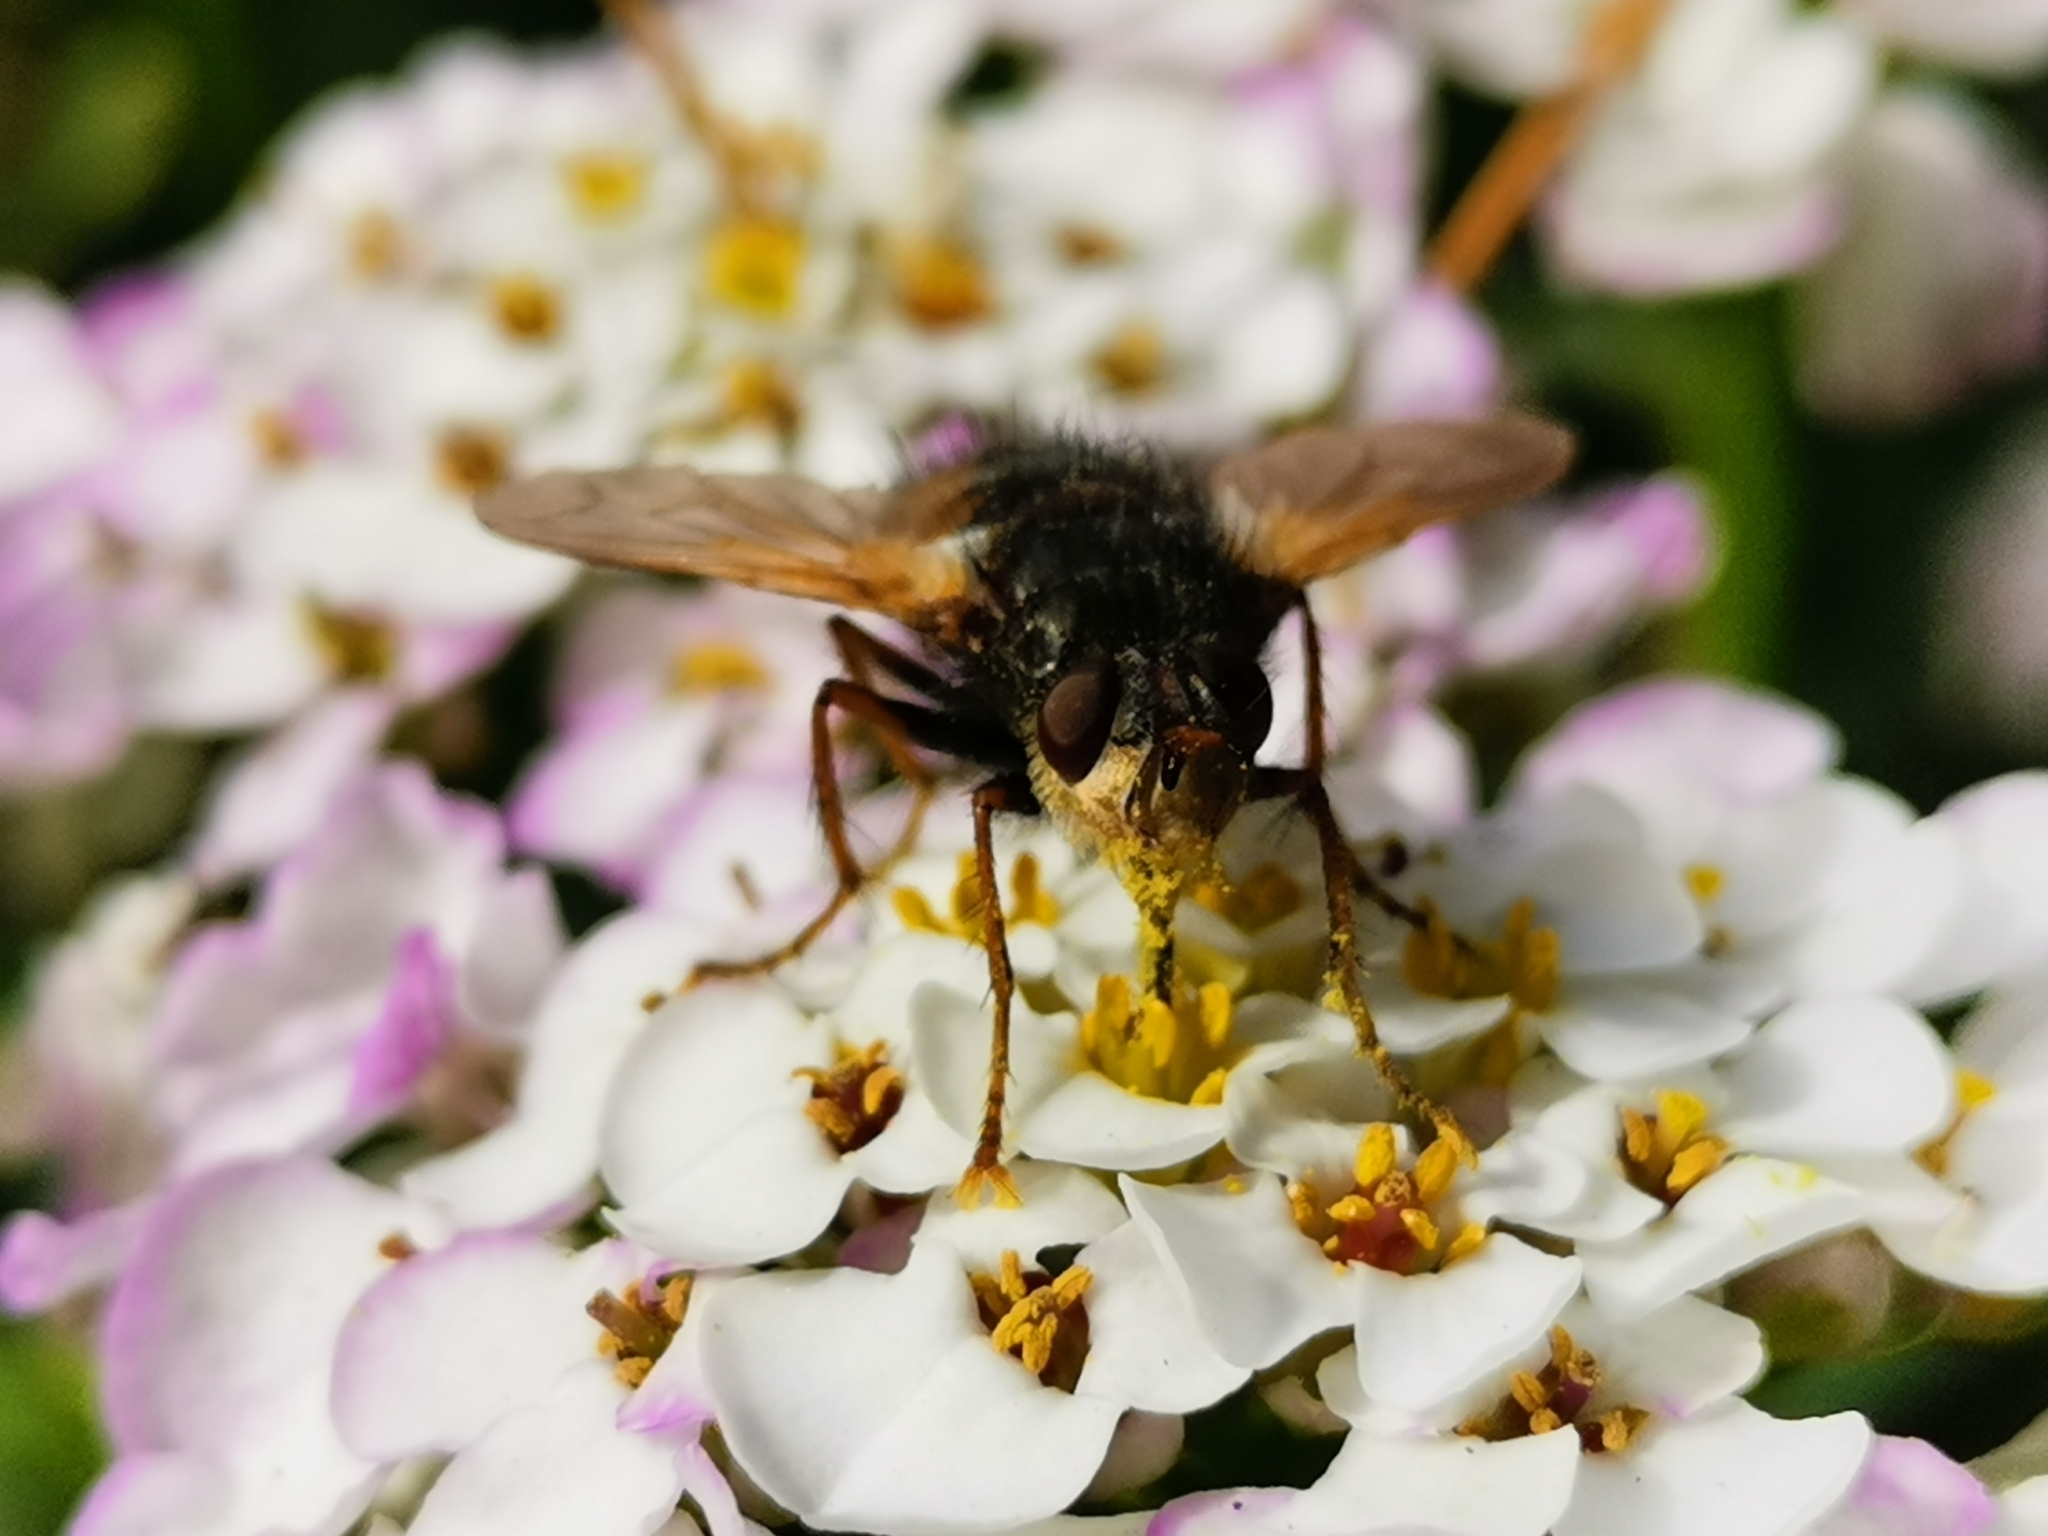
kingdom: Animalia
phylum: Arthropoda
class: Insecta
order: Diptera
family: Tachinidae
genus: Tachina
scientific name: Tachina fera
